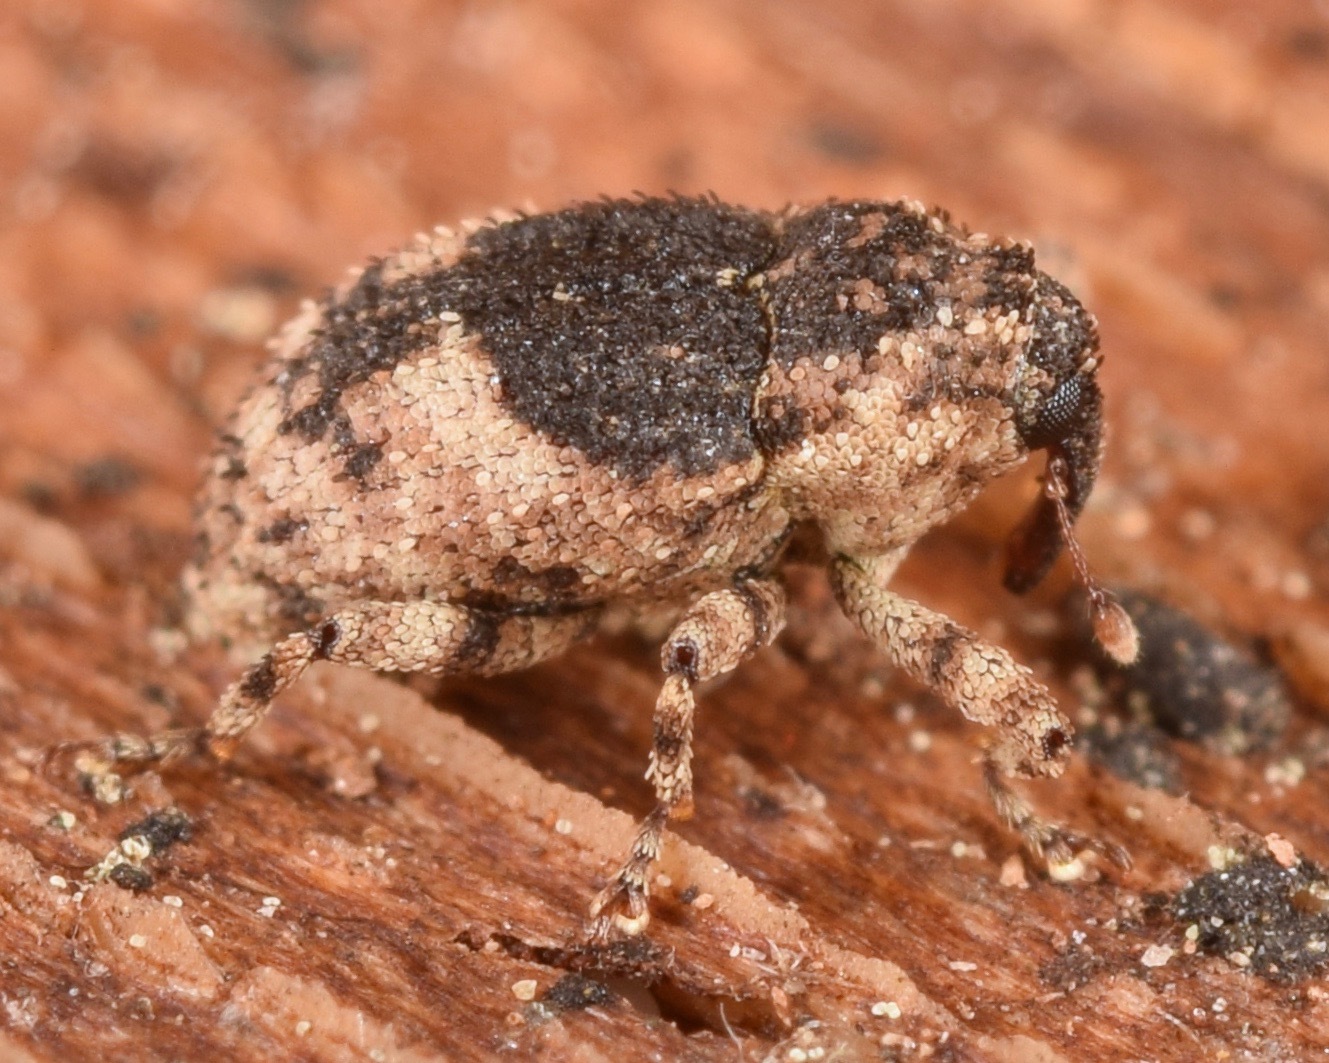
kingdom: Animalia
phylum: Arthropoda
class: Insecta
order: Coleoptera
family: Curculionidae
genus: Cophes
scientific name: Cophes fallax
